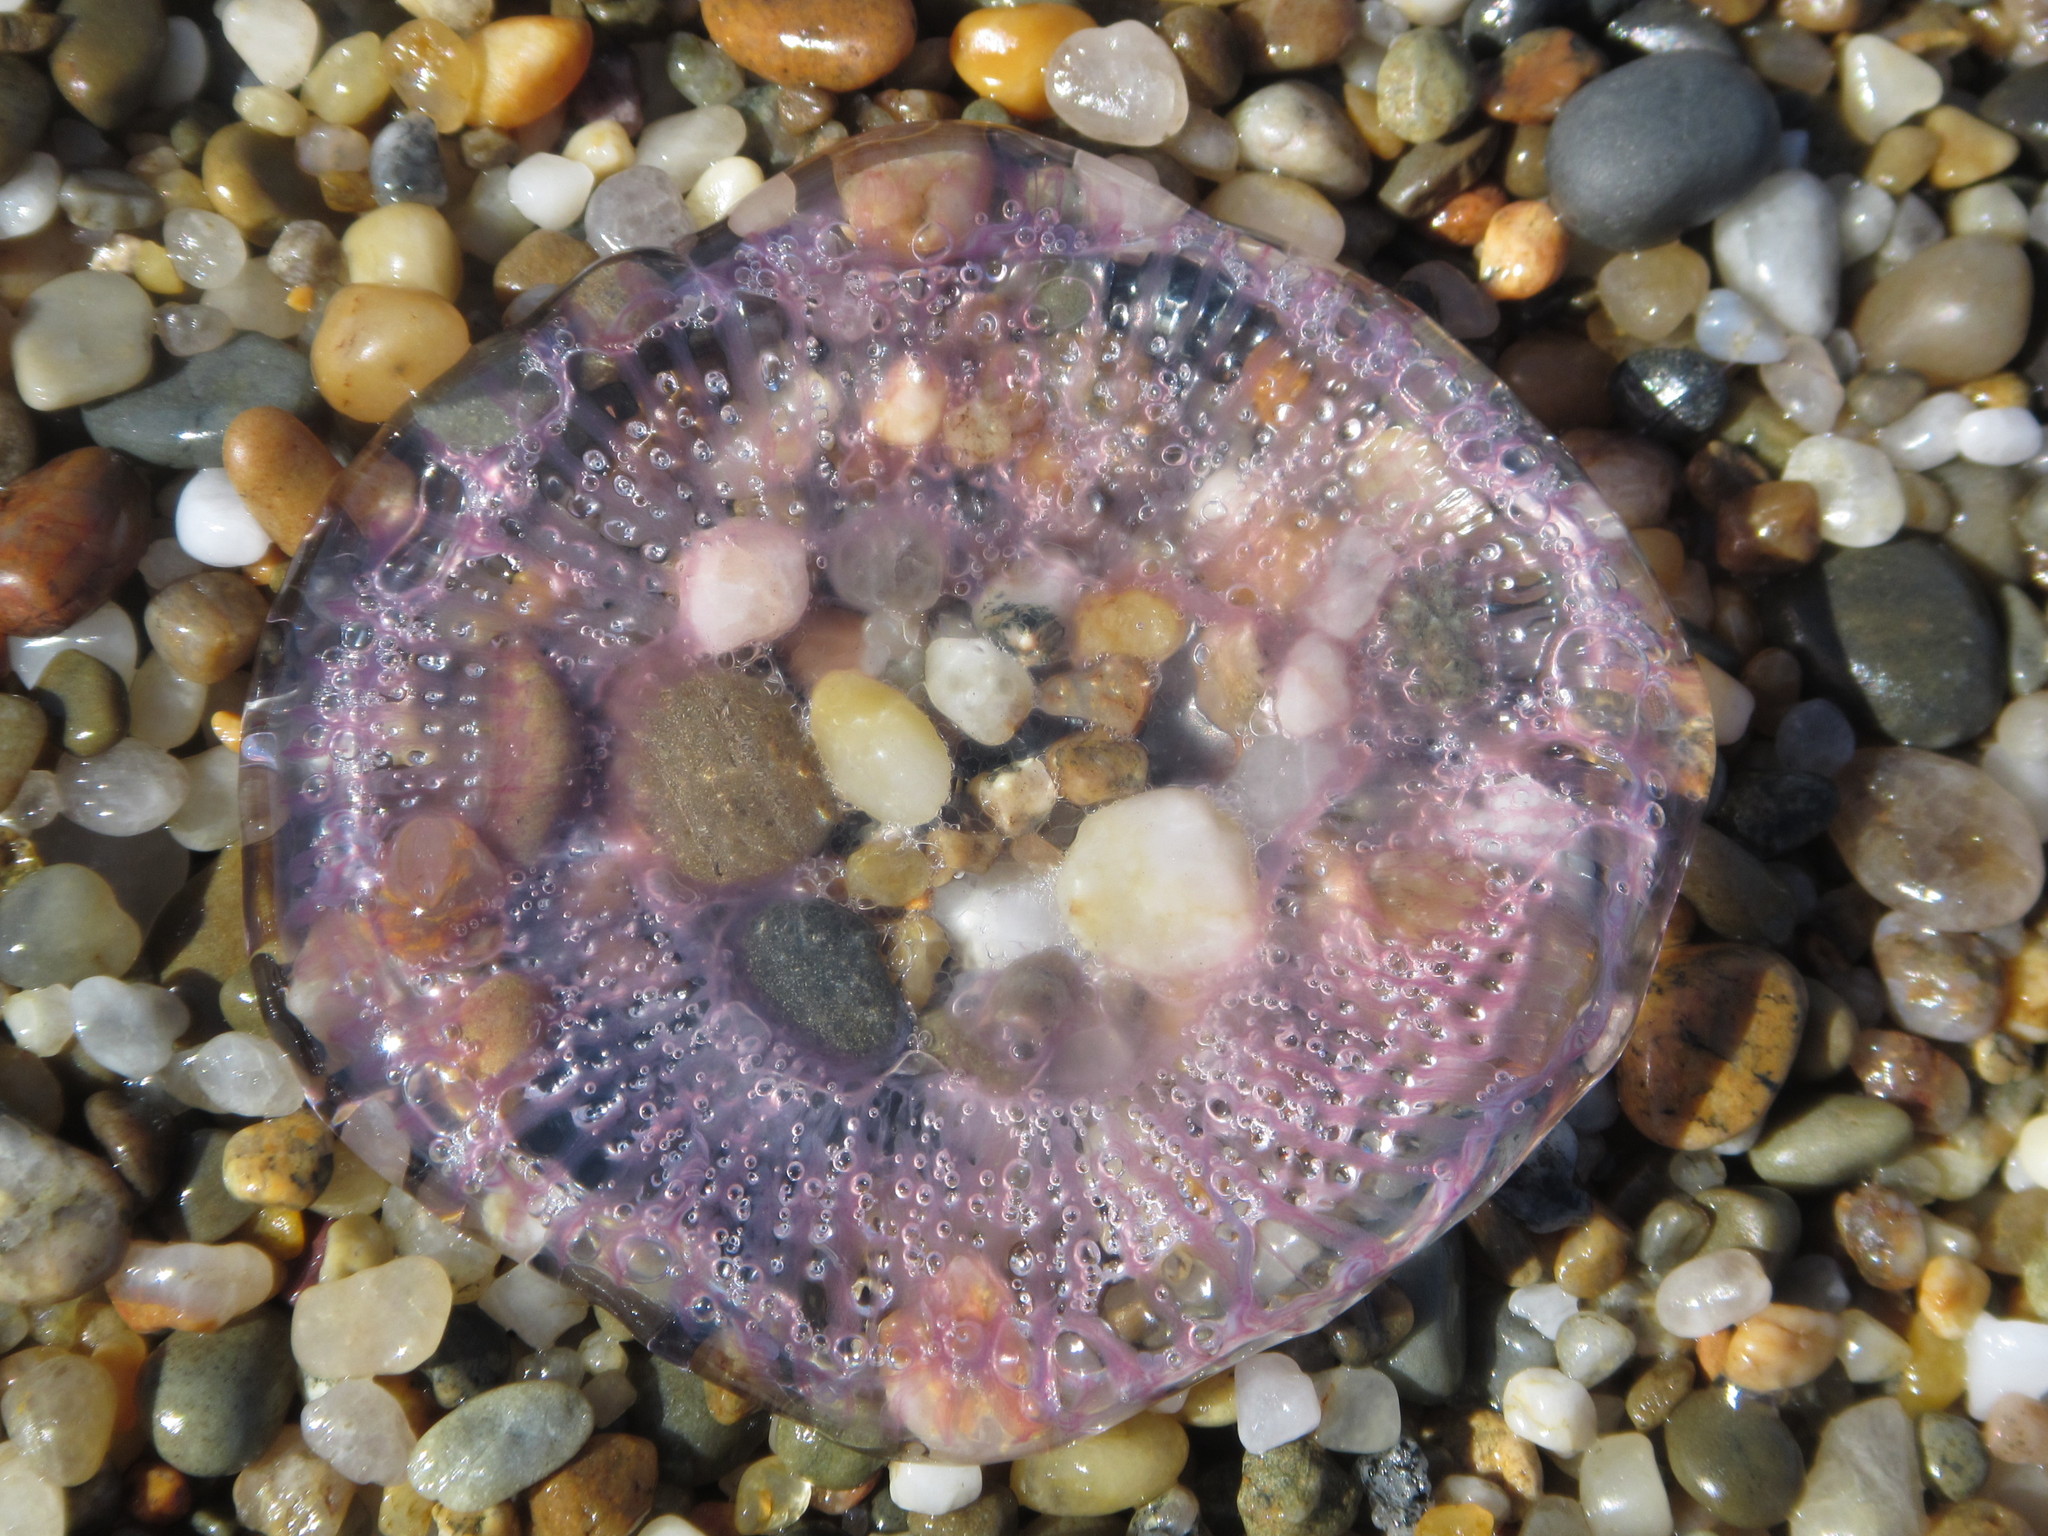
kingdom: Animalia
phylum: Cnidaria
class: Hydrozoa
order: Leptothecata
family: Aequoreidae
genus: Rhacostoma
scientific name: Rhacostoma atlanticum
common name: Lined water jelly
